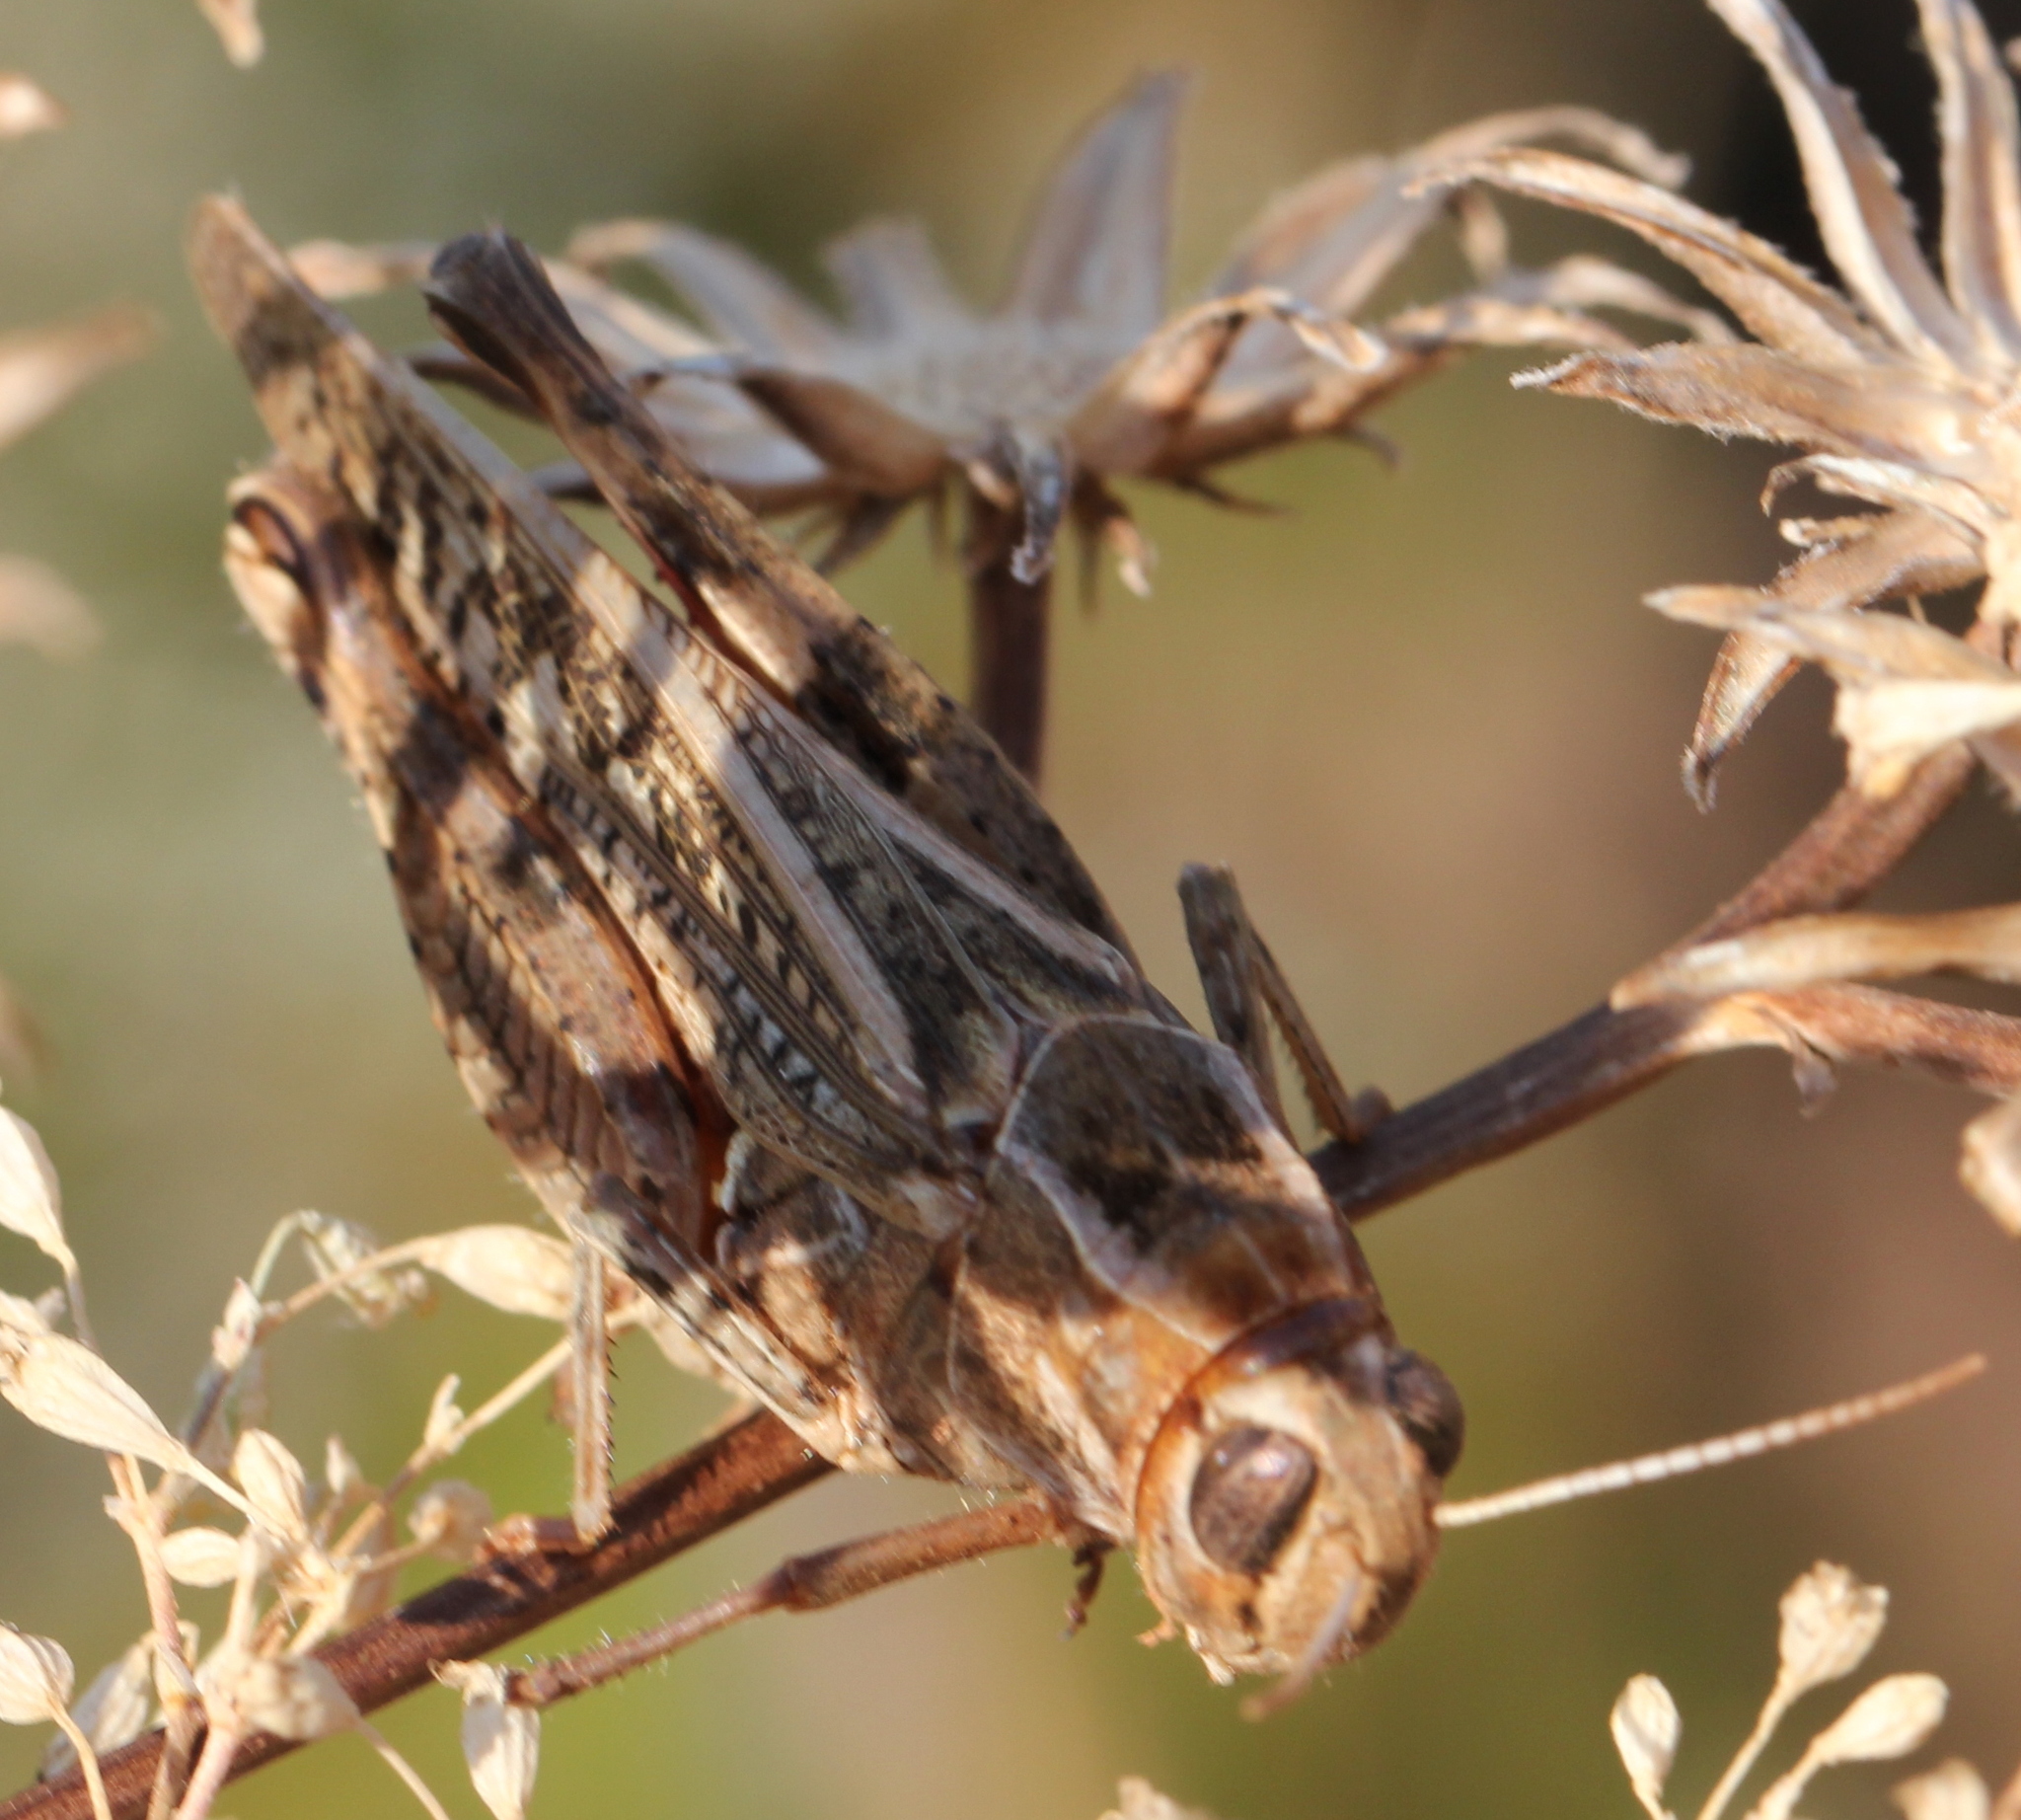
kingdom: Animalia
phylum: Arthropoda
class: Insecta
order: Orthoptera
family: Acrididae
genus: Calliptamus
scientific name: Calliptamus italicus
